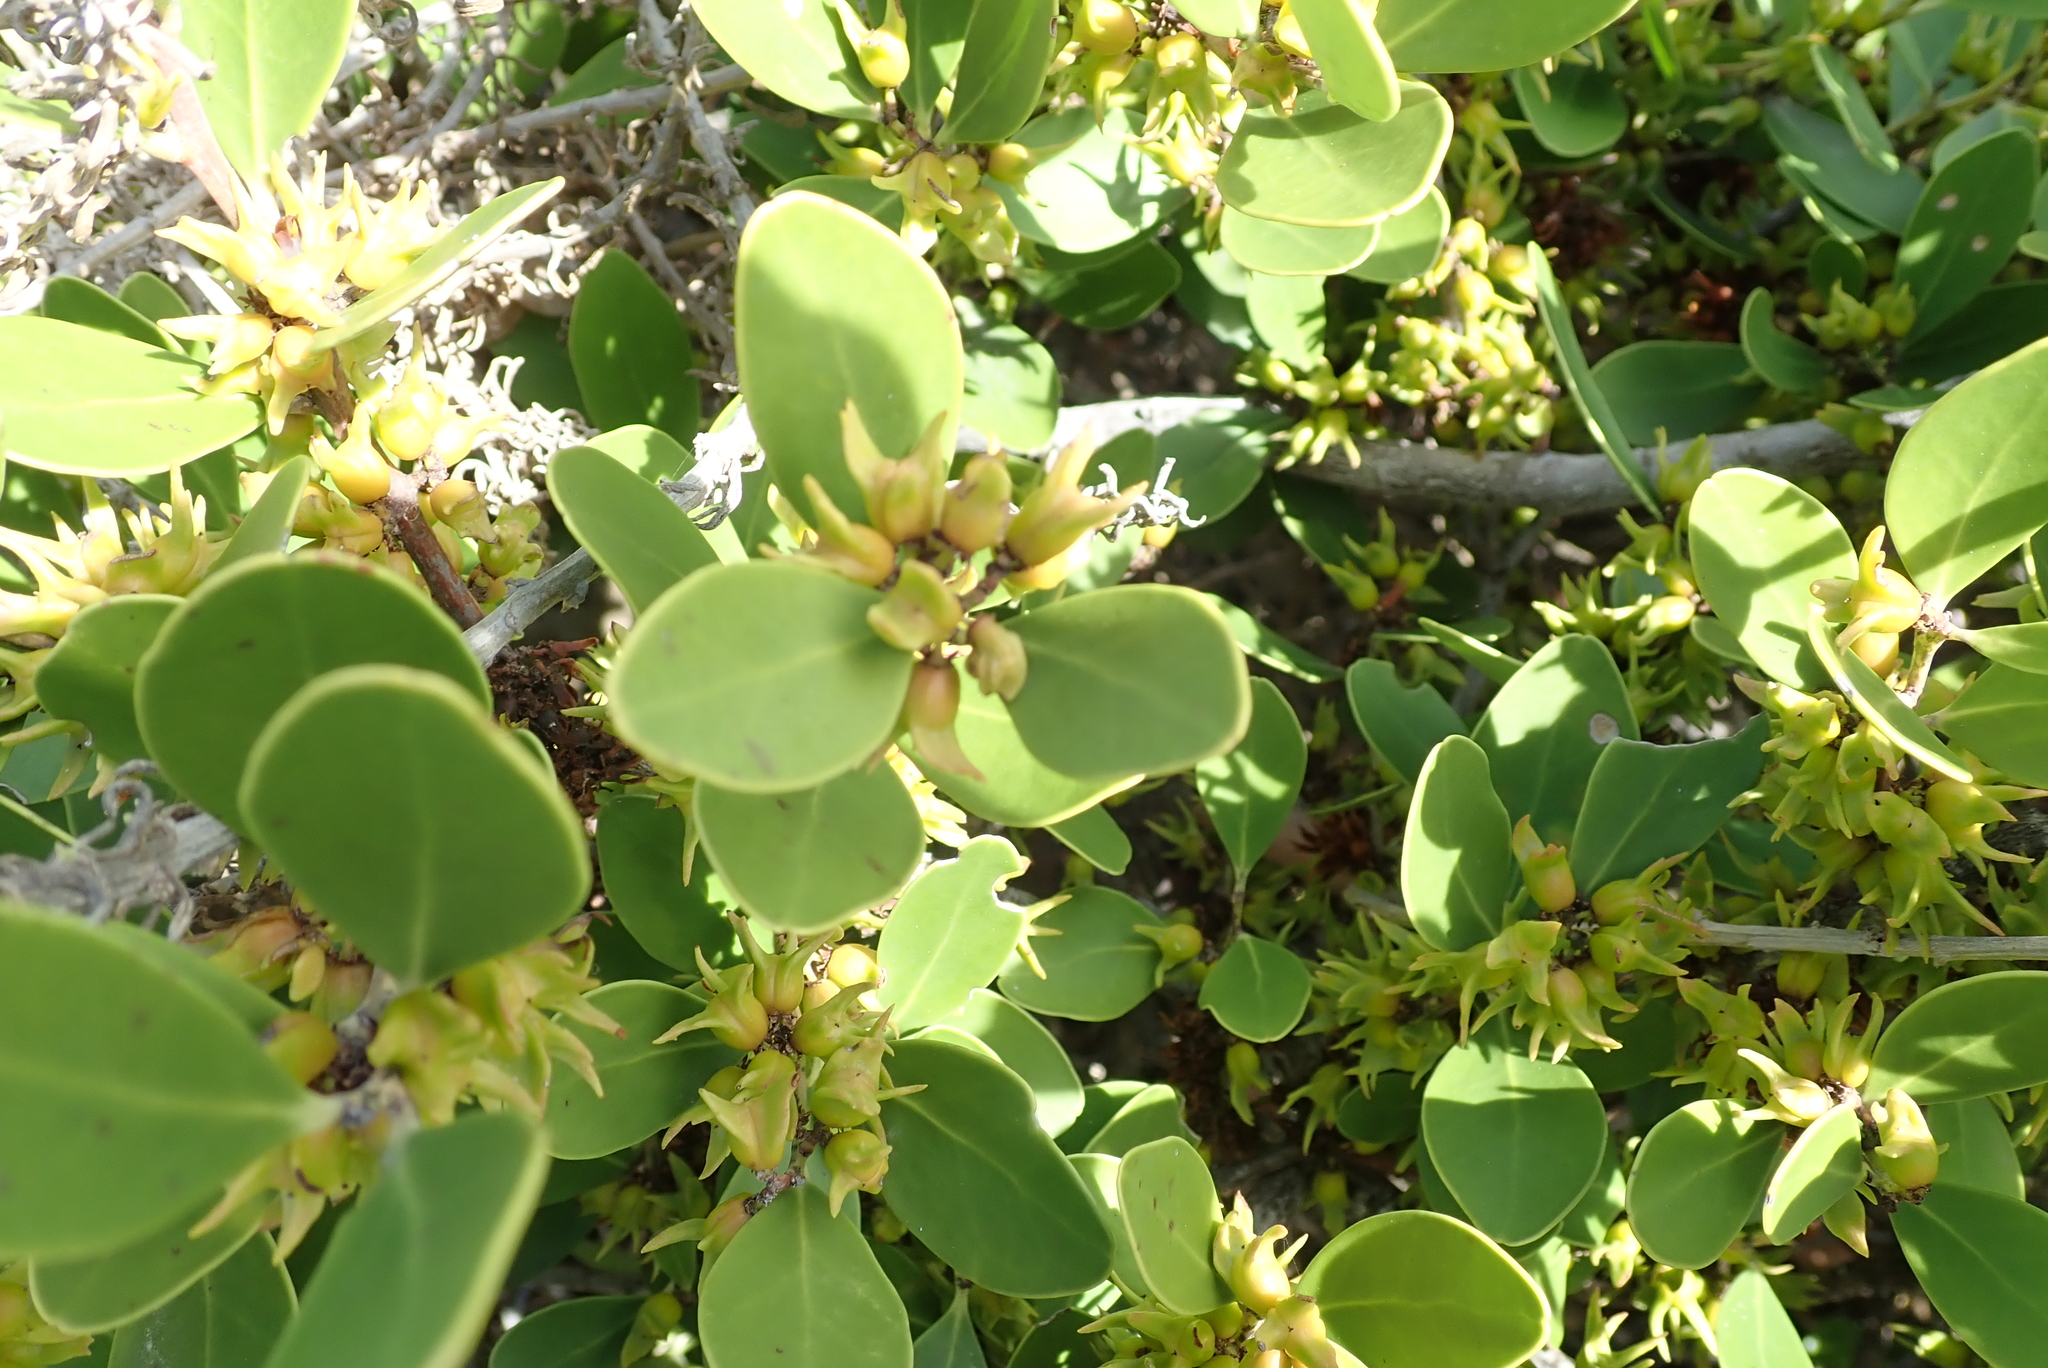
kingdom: Plantae
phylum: Tracheophyta
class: Magnoliopsida
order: Celastrales
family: Celastraceae
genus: Pterocelastrus
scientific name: Pterocelastrus tricuspidatus
